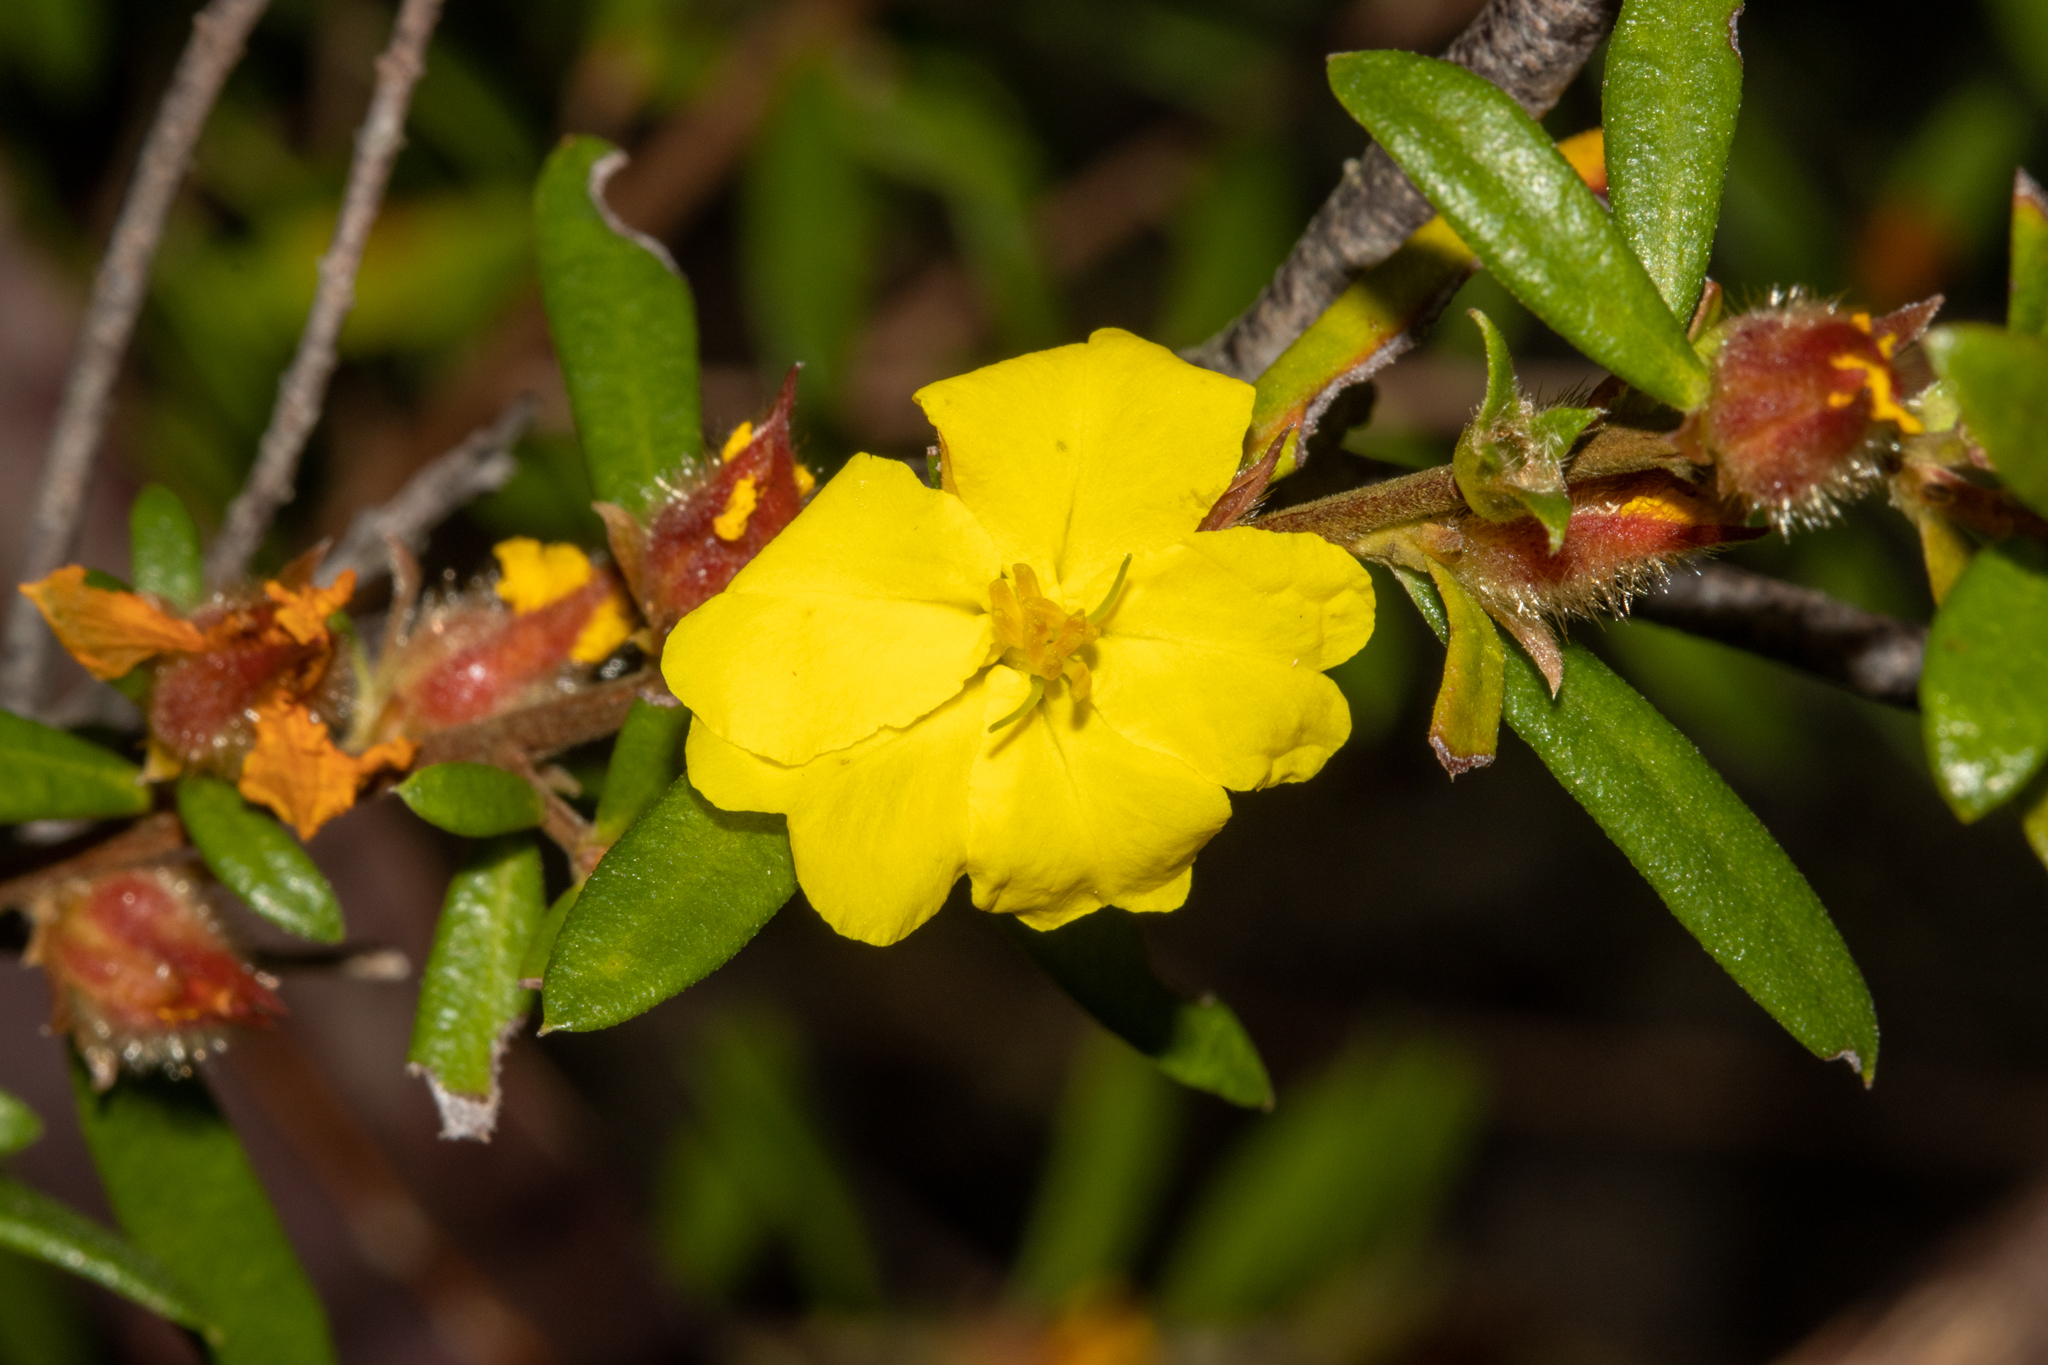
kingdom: Plantae
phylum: Tracheophyta
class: Magnoliopsida
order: Dilleniales
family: Dilleniaceae
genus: Hibbertia
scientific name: Hibbertia bracteata
